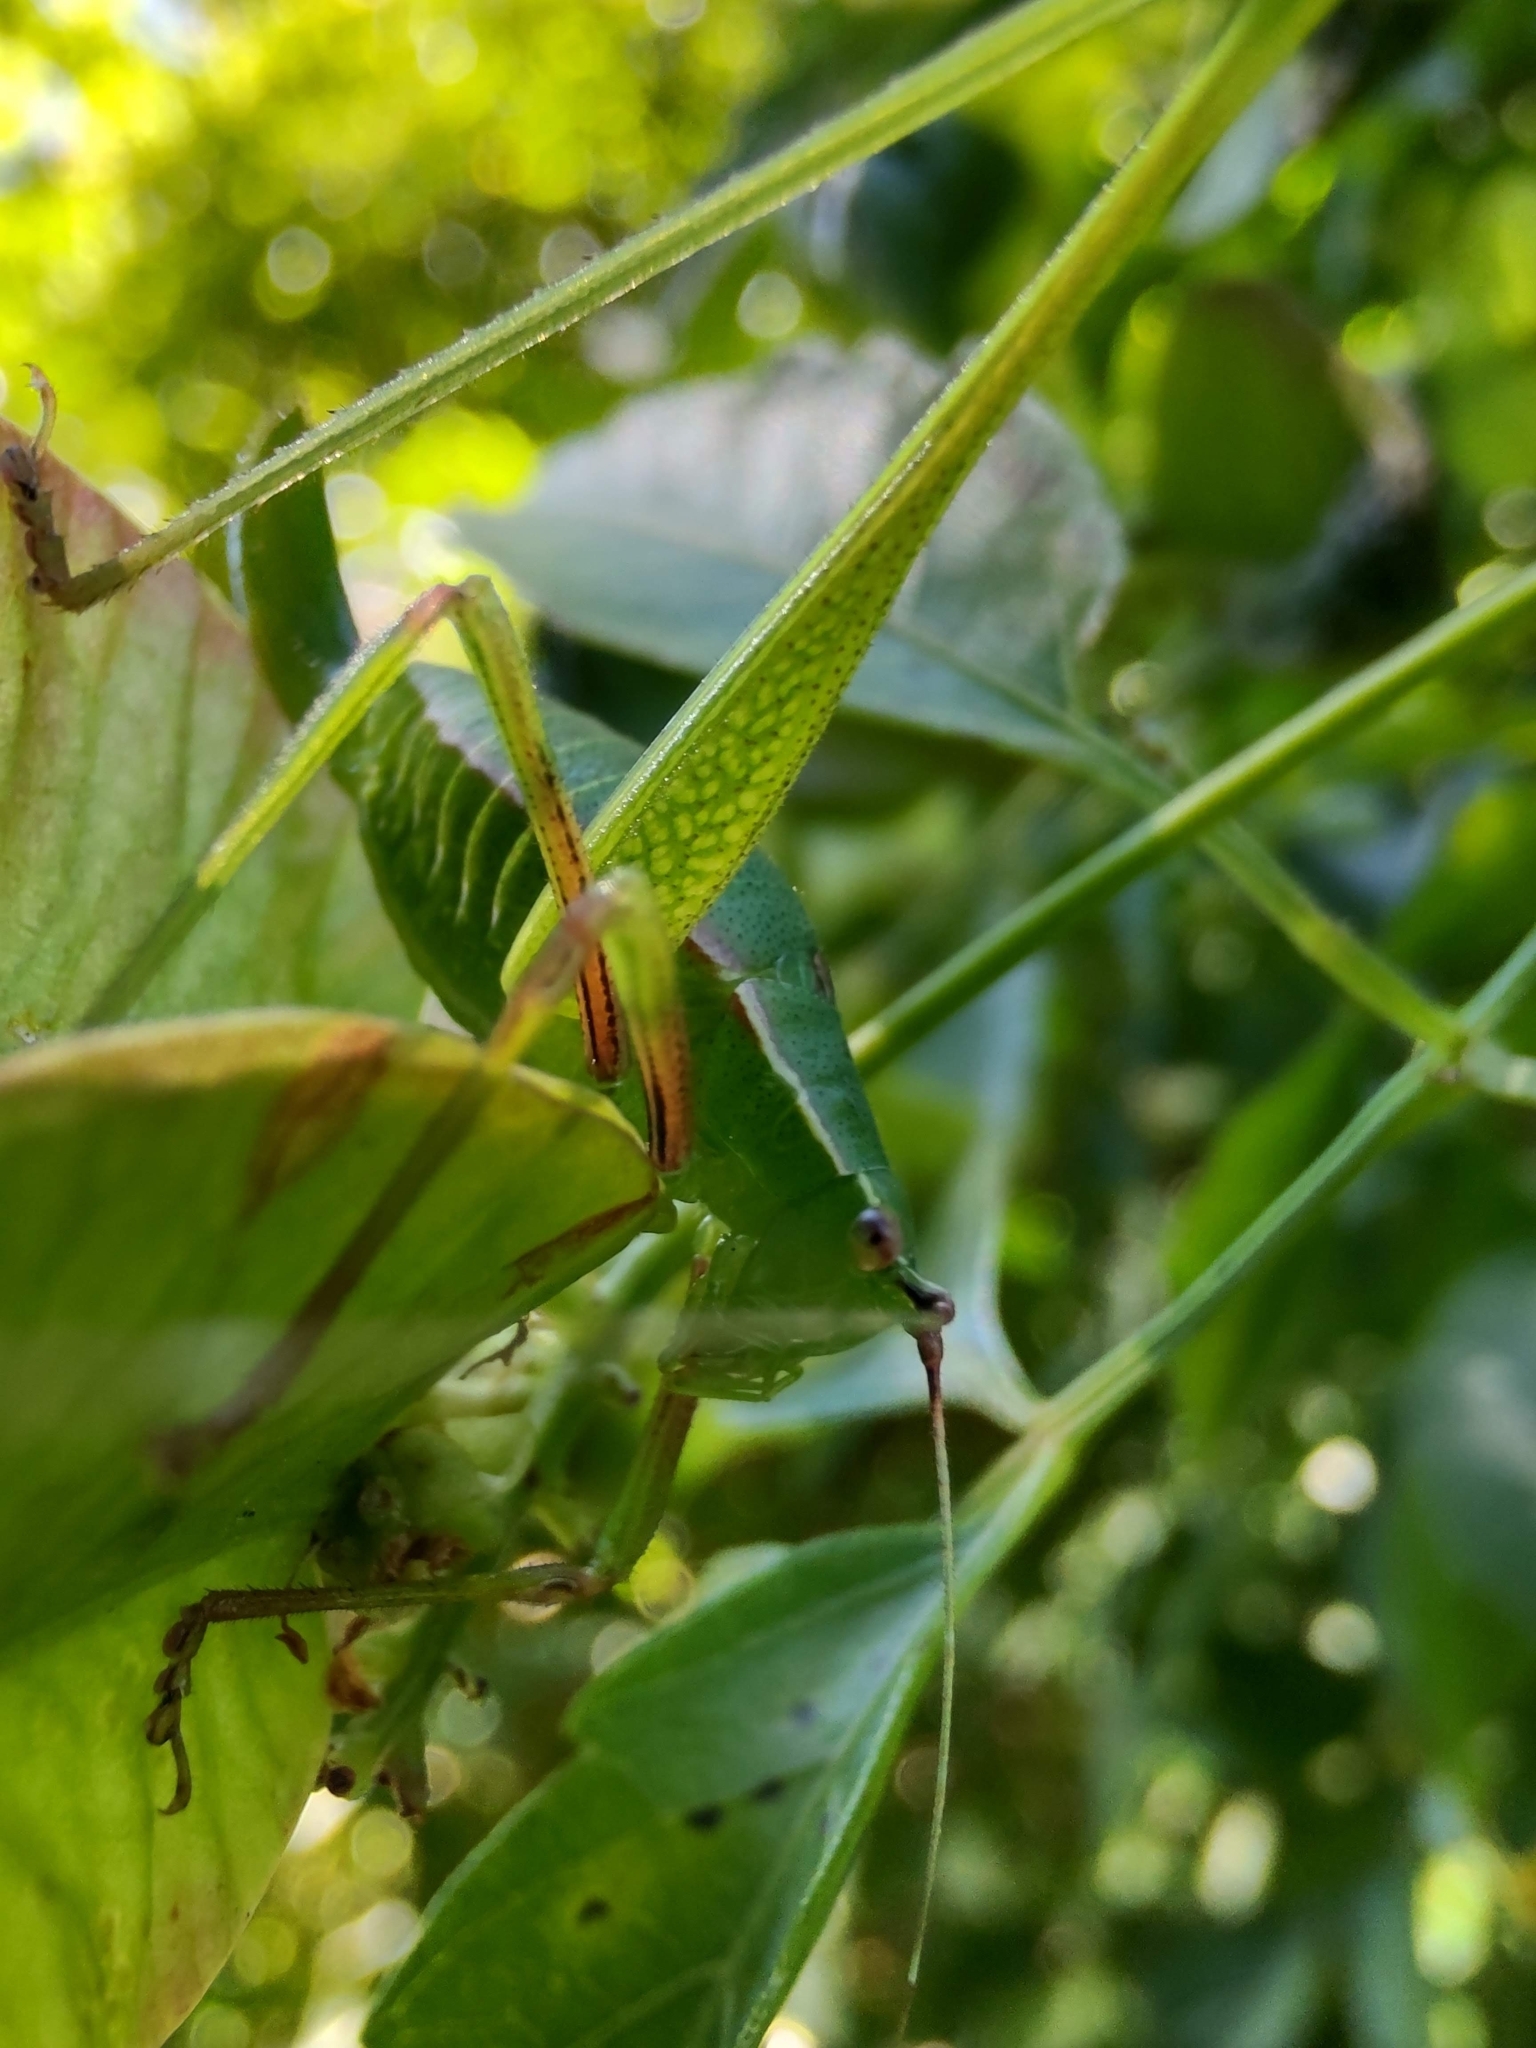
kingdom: Animalia
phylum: Arthropoda
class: Insecta
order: Orthoptera
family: Tettigoniidae
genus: Xenicola
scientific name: Xenicola dohrni
